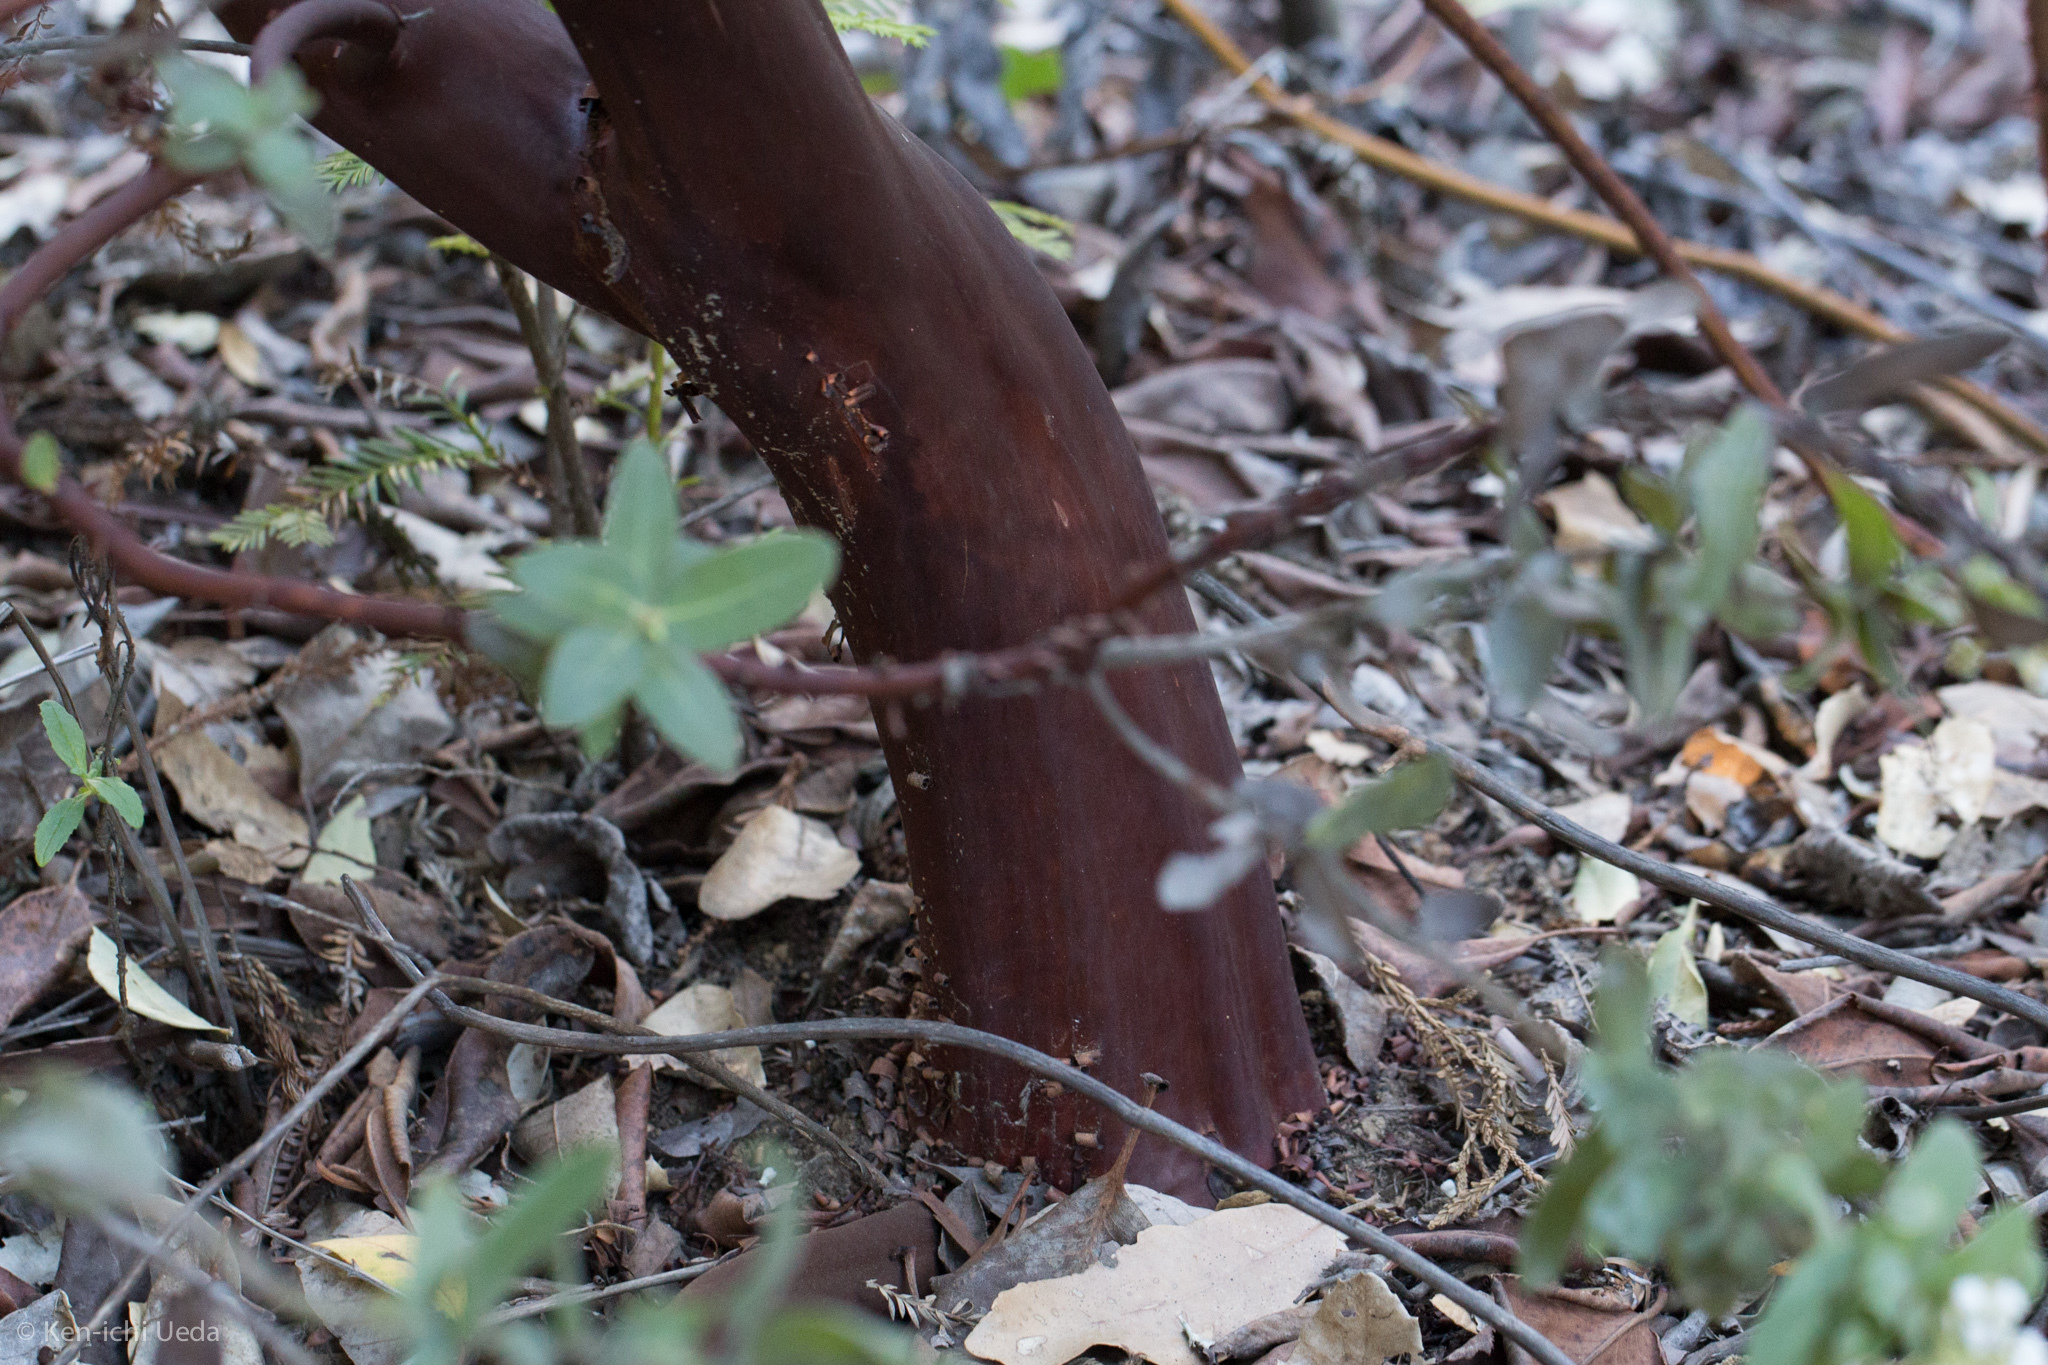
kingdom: Plantae
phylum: Tracheophyta
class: Magnoliopsida
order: Ericales
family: Ericaceae
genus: Arctostaphylos
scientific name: Arctostaphylos andersonii
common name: Santa cruz manzanita
